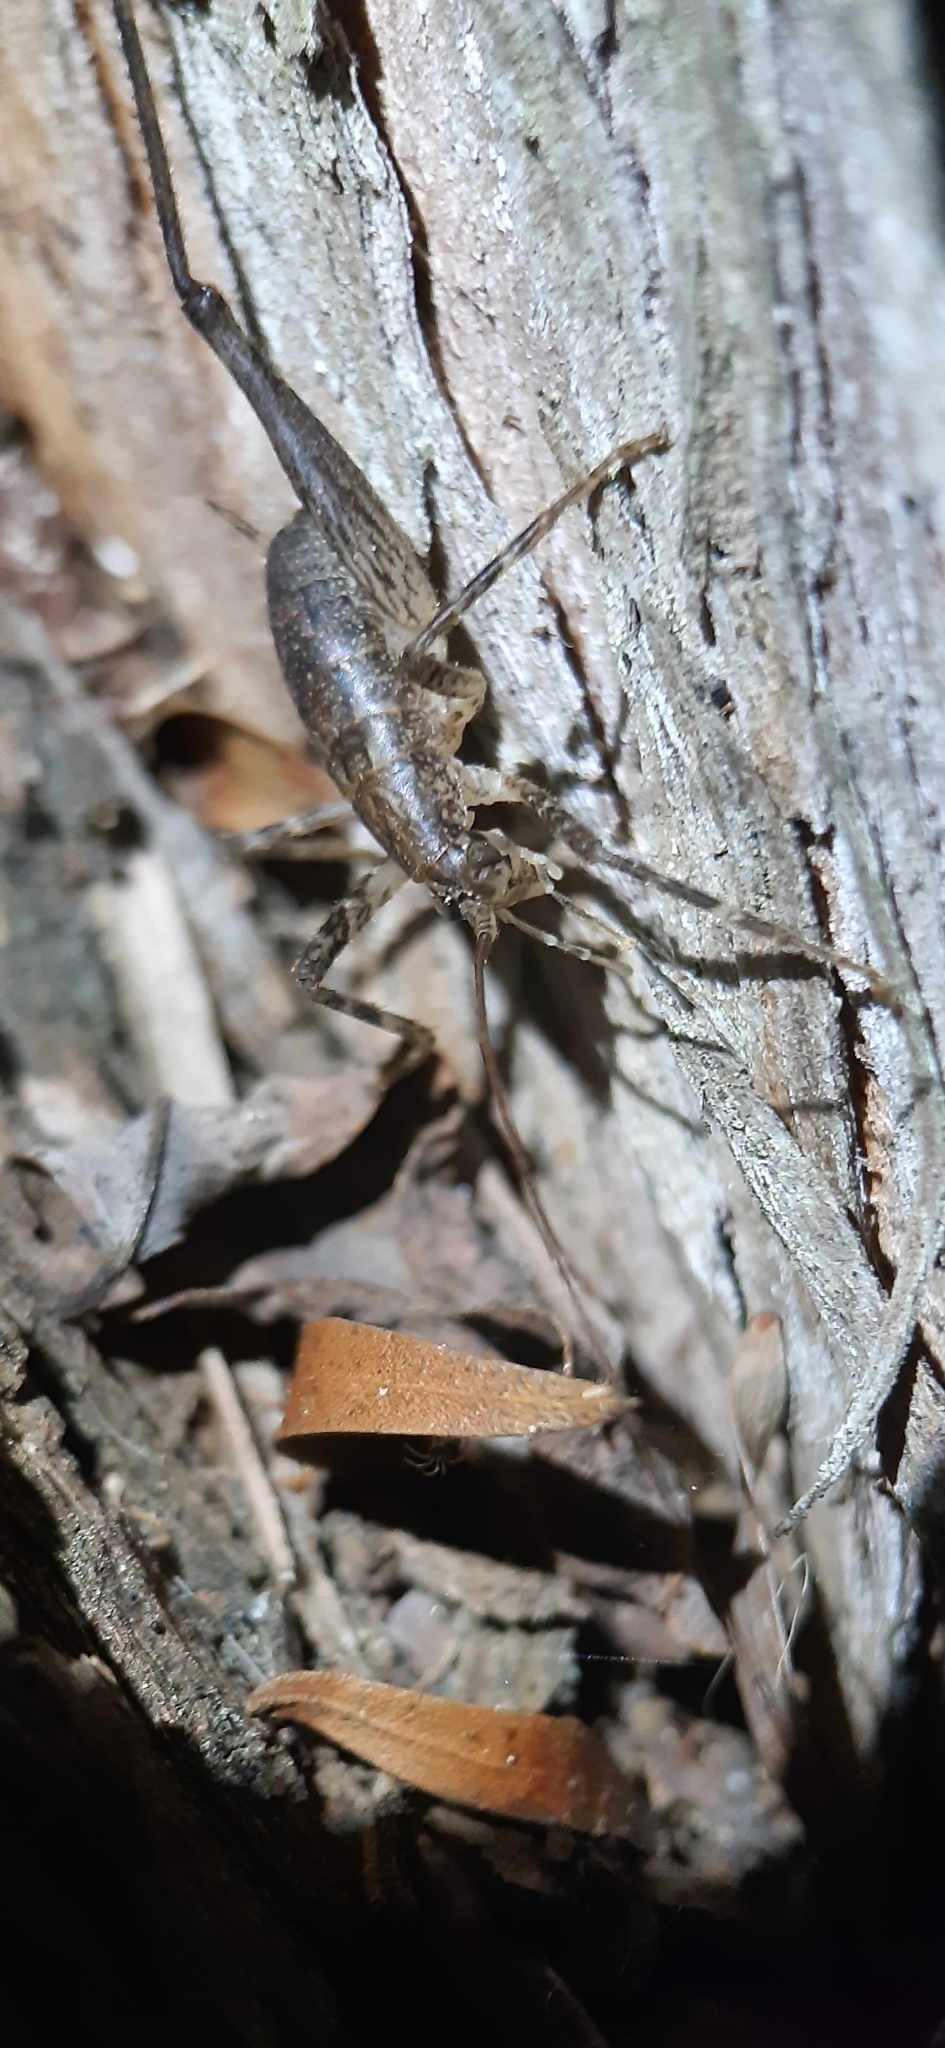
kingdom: Animalia
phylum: Arthropoda
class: Insecta
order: Orthoptera
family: Rhaphidophoridae
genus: Isoplectron
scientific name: Isoplectron armatum
